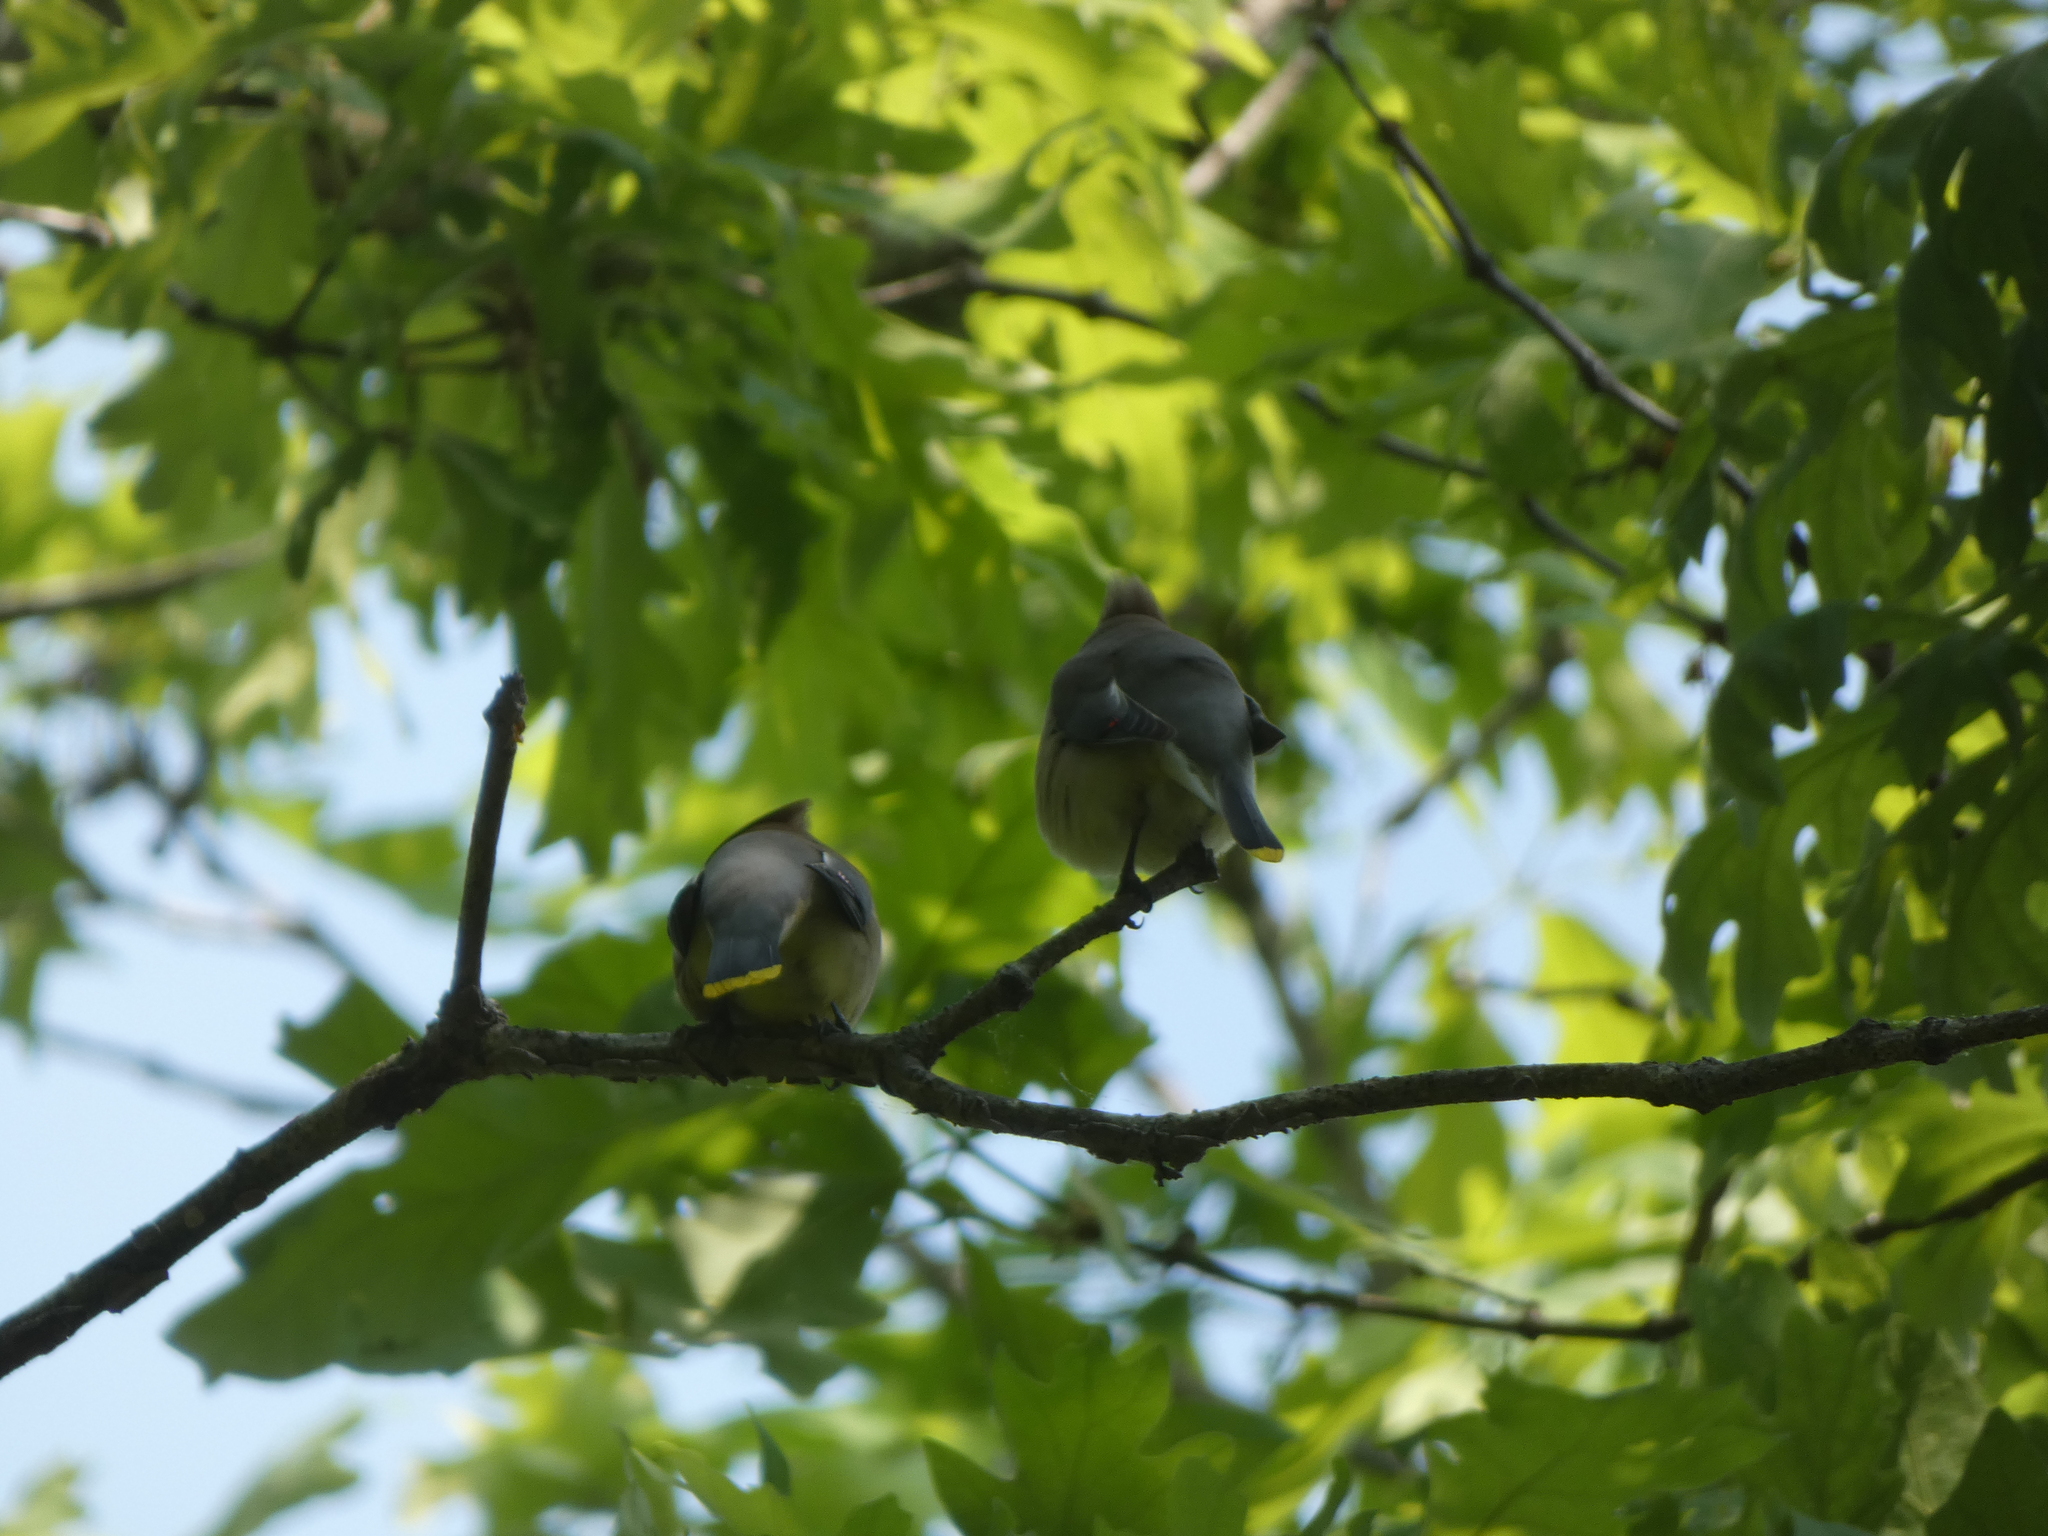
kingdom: Animalia
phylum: Chordata
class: Aves
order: Passeriformes
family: Bombycillidae
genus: Bombycilla
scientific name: Bombycilla cedrorum
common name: Cedar waxwing
